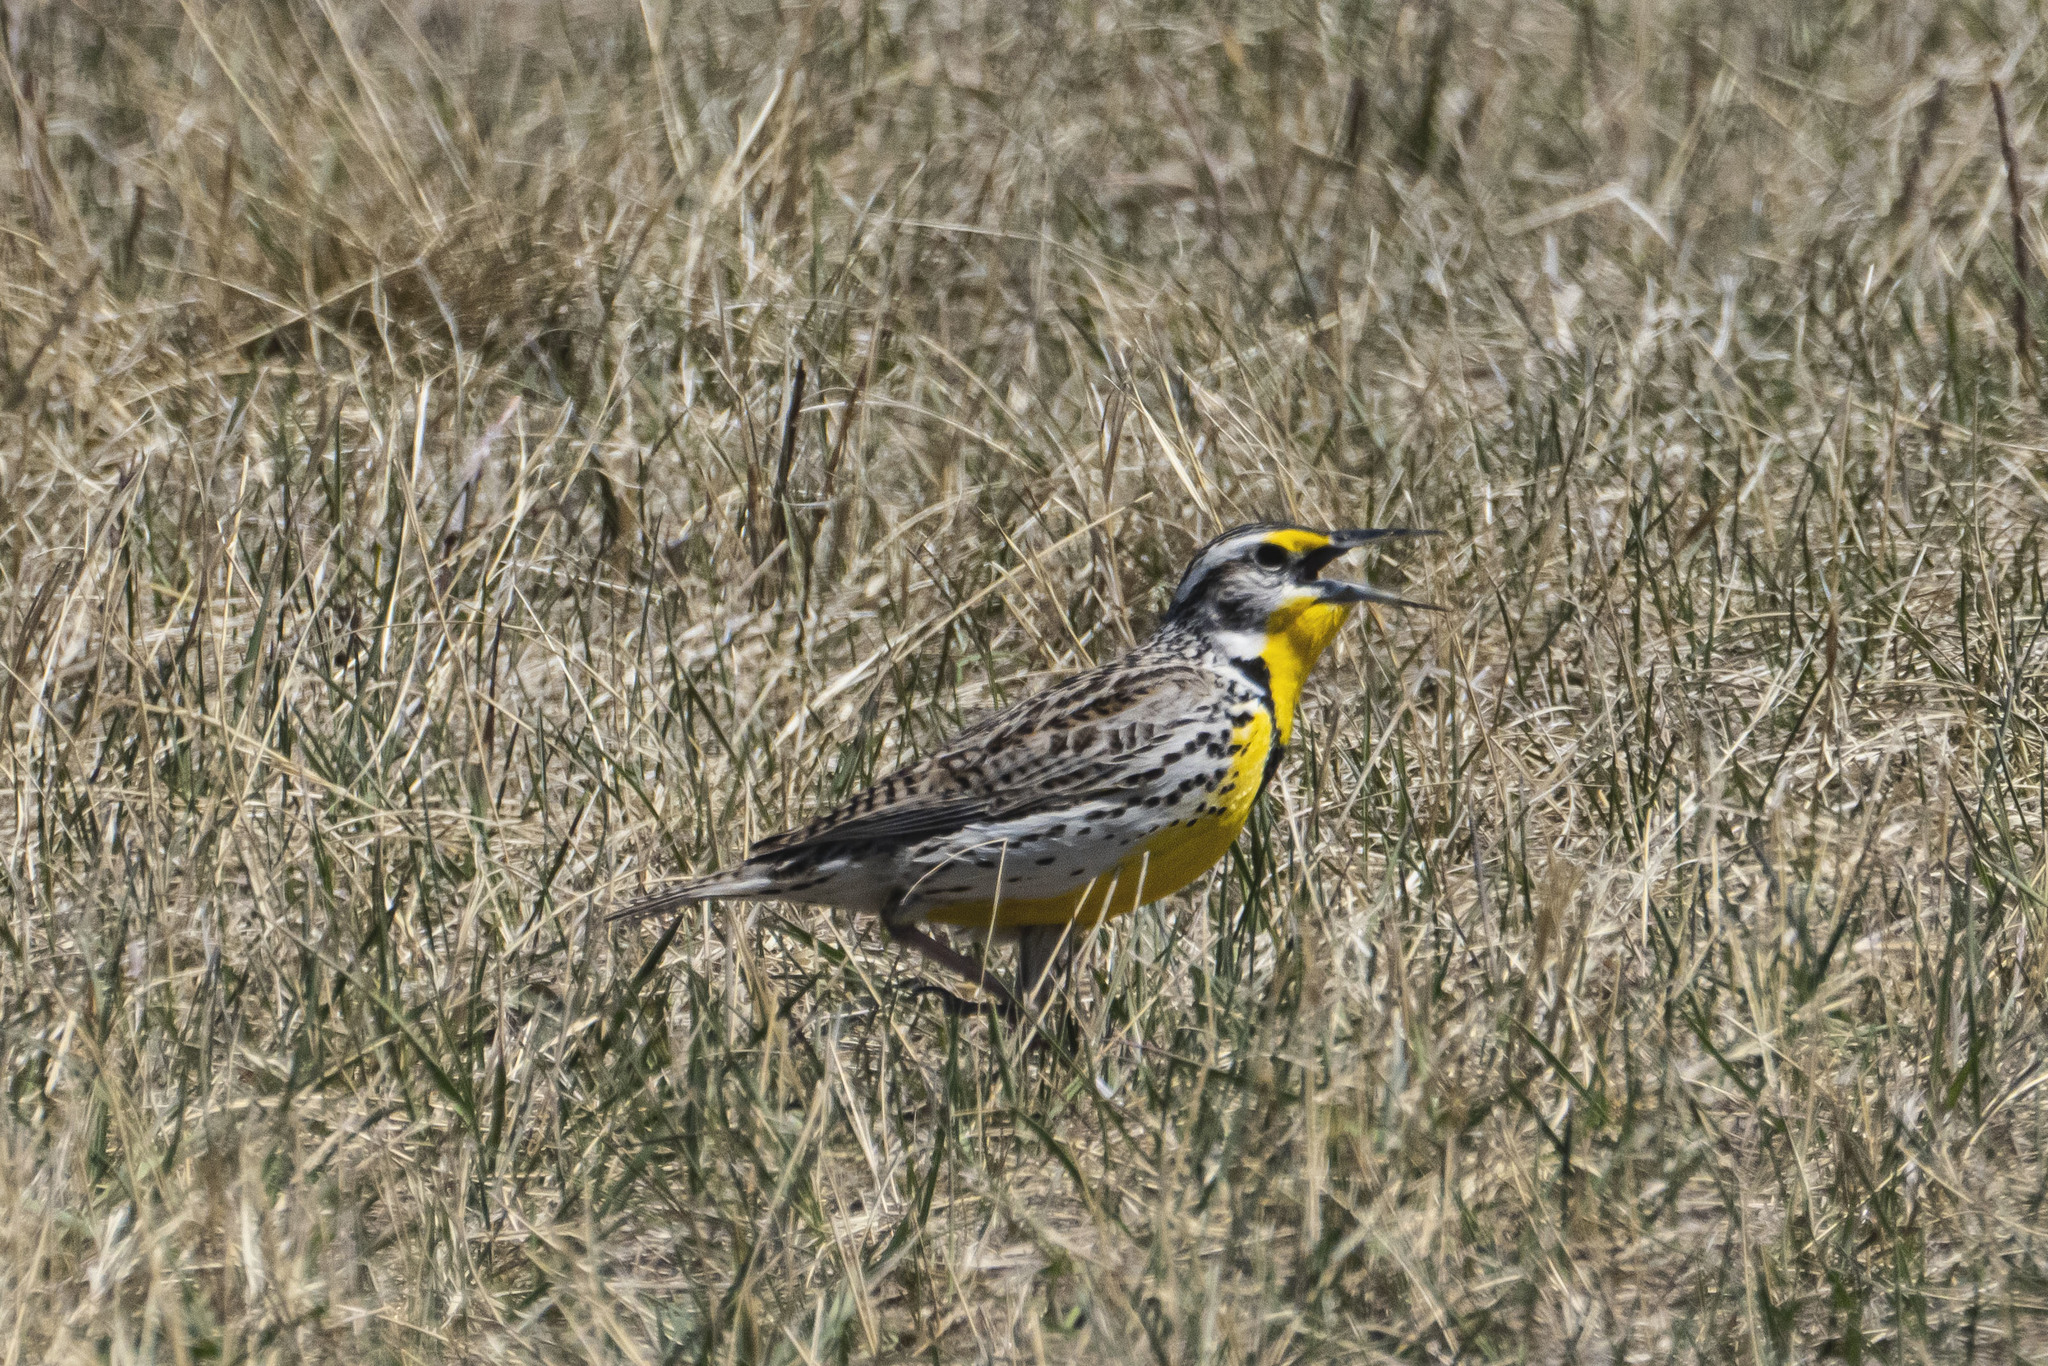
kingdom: Animalia
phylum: Chordata
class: Aves
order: Passeriformes
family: Icteridae
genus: Sturnella
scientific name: Sturnella neglecta
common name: Western meadowlark
